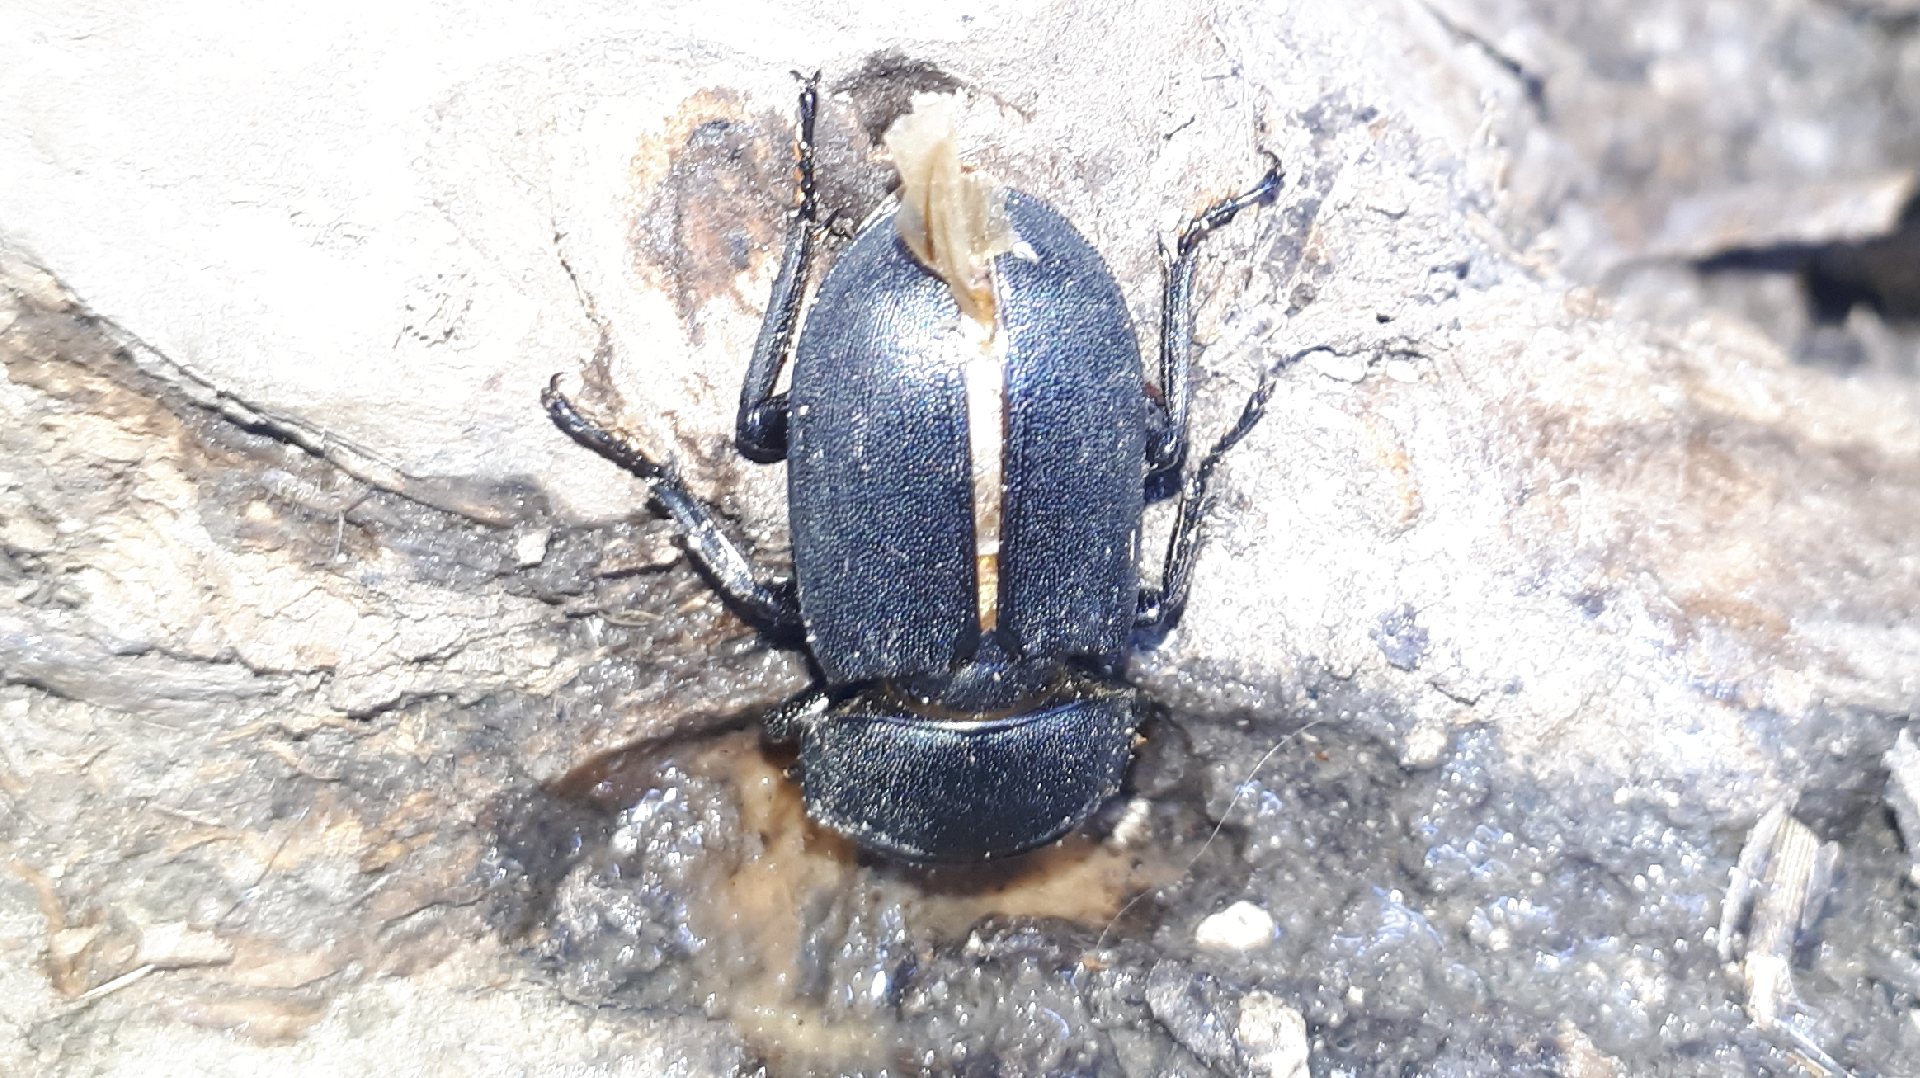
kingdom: Animalia
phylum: Arthropoda
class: Insecta
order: Coleoptera
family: Lucanidae
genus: Dorcus
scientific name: Dorcus parallelipipedus
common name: Lesser stag beetle
